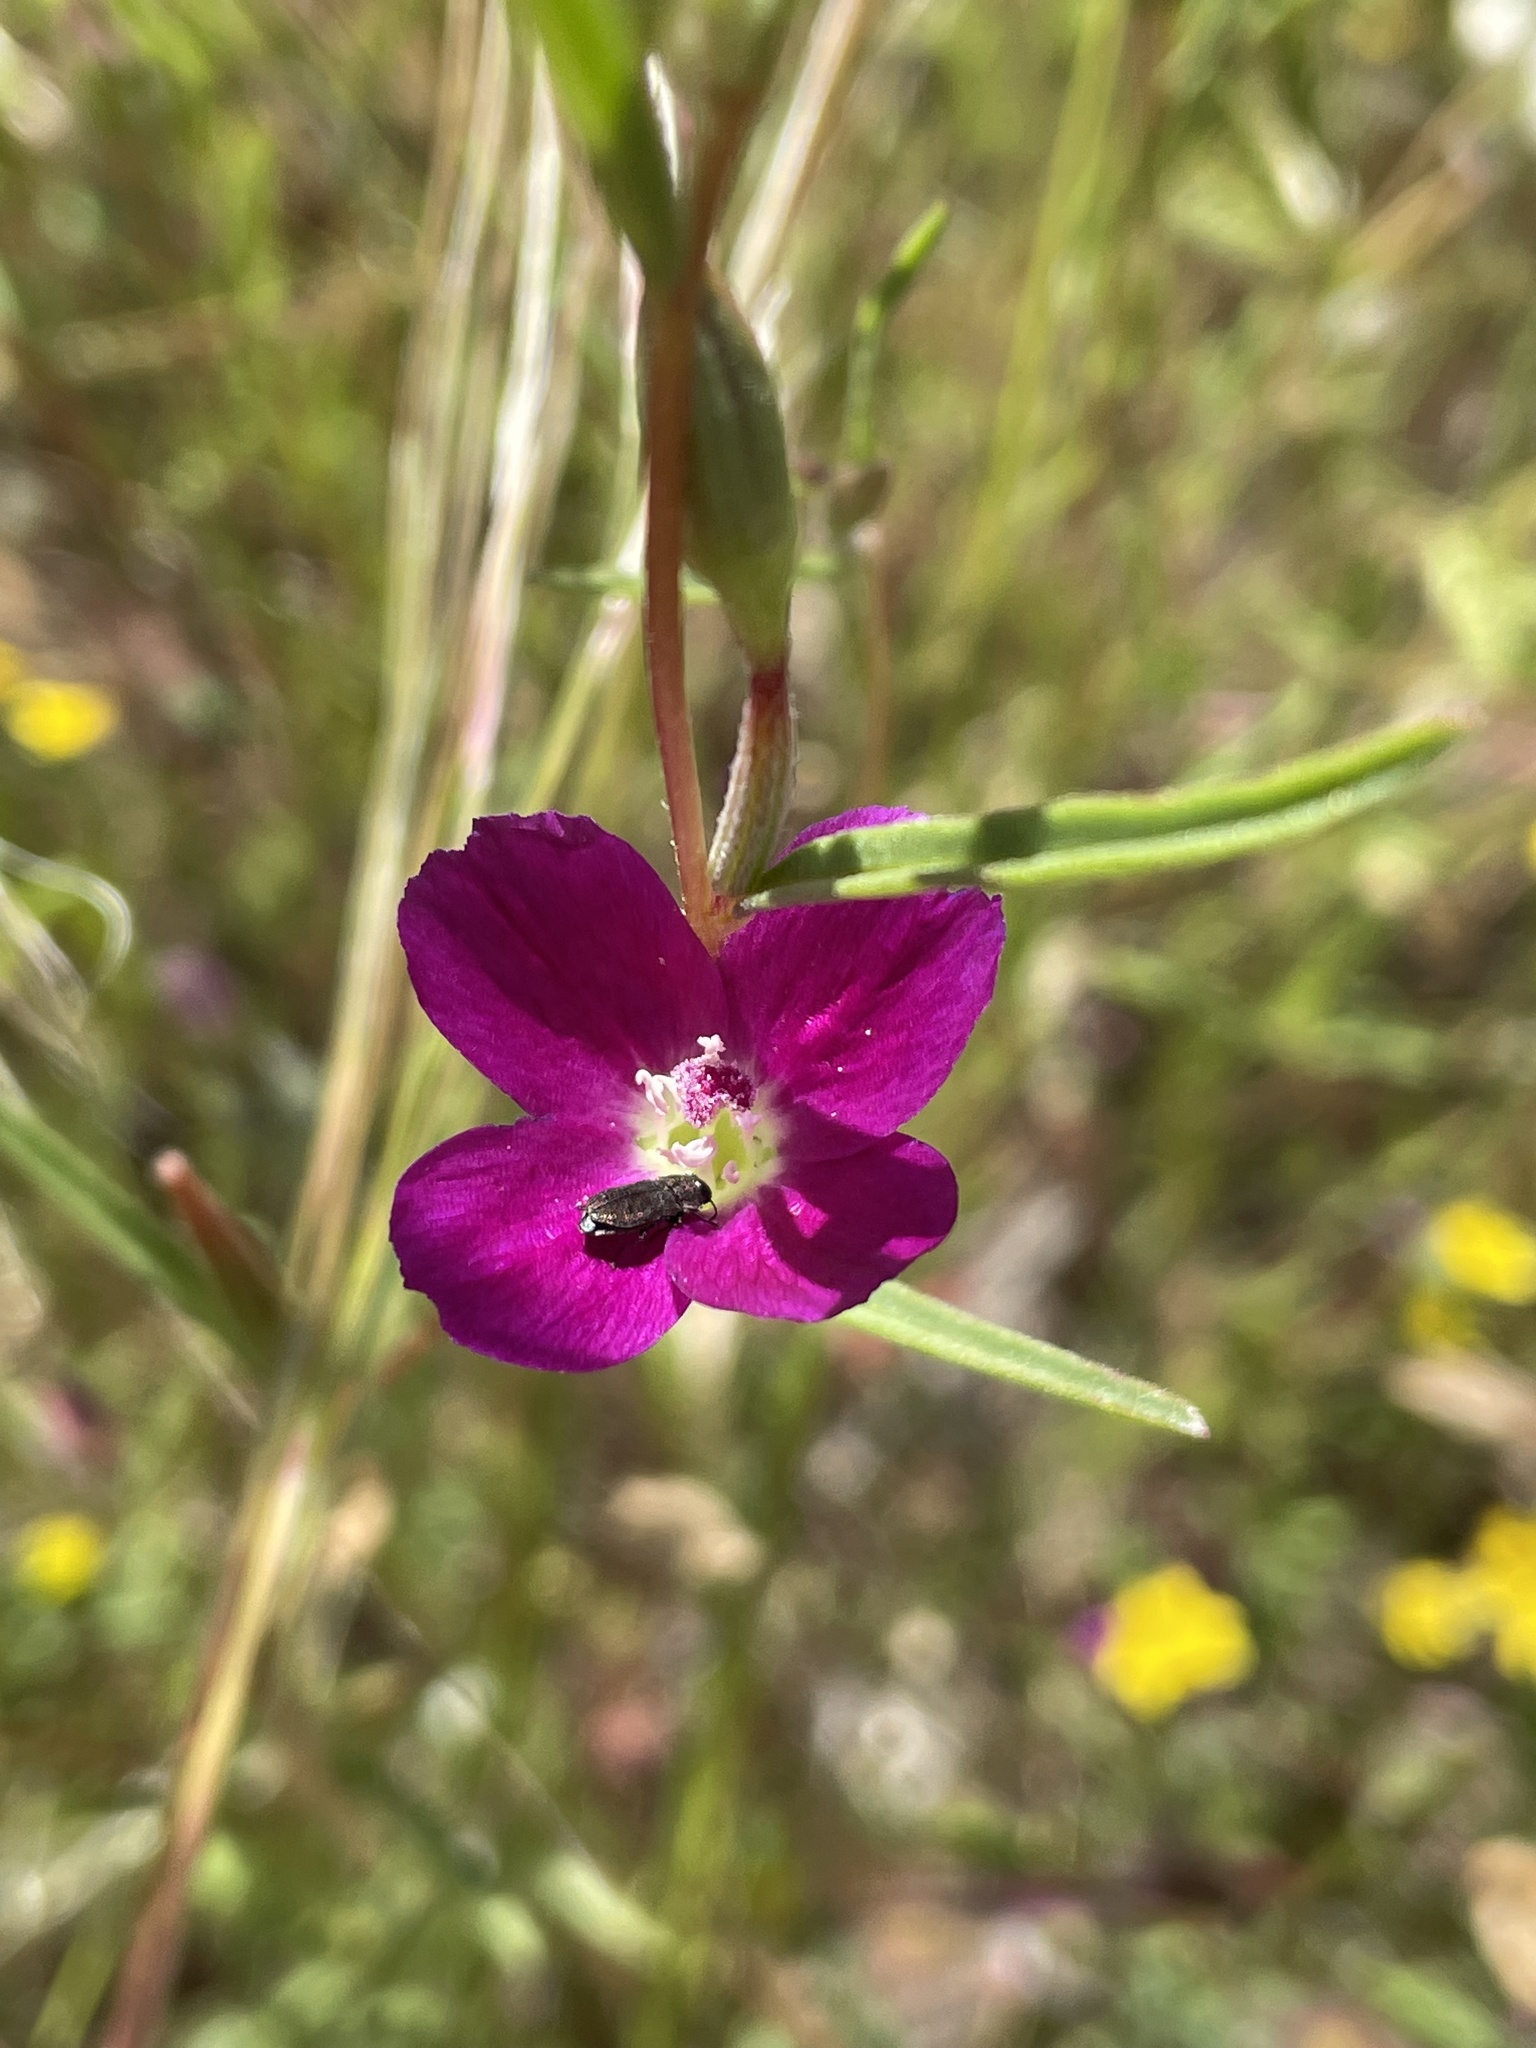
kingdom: Plantae
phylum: Tracheophyta
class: Magnoliopsida
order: Myrtales
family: Onagraceae
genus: Clarkia
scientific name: Clarkia purpurea
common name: Purple clarkia
